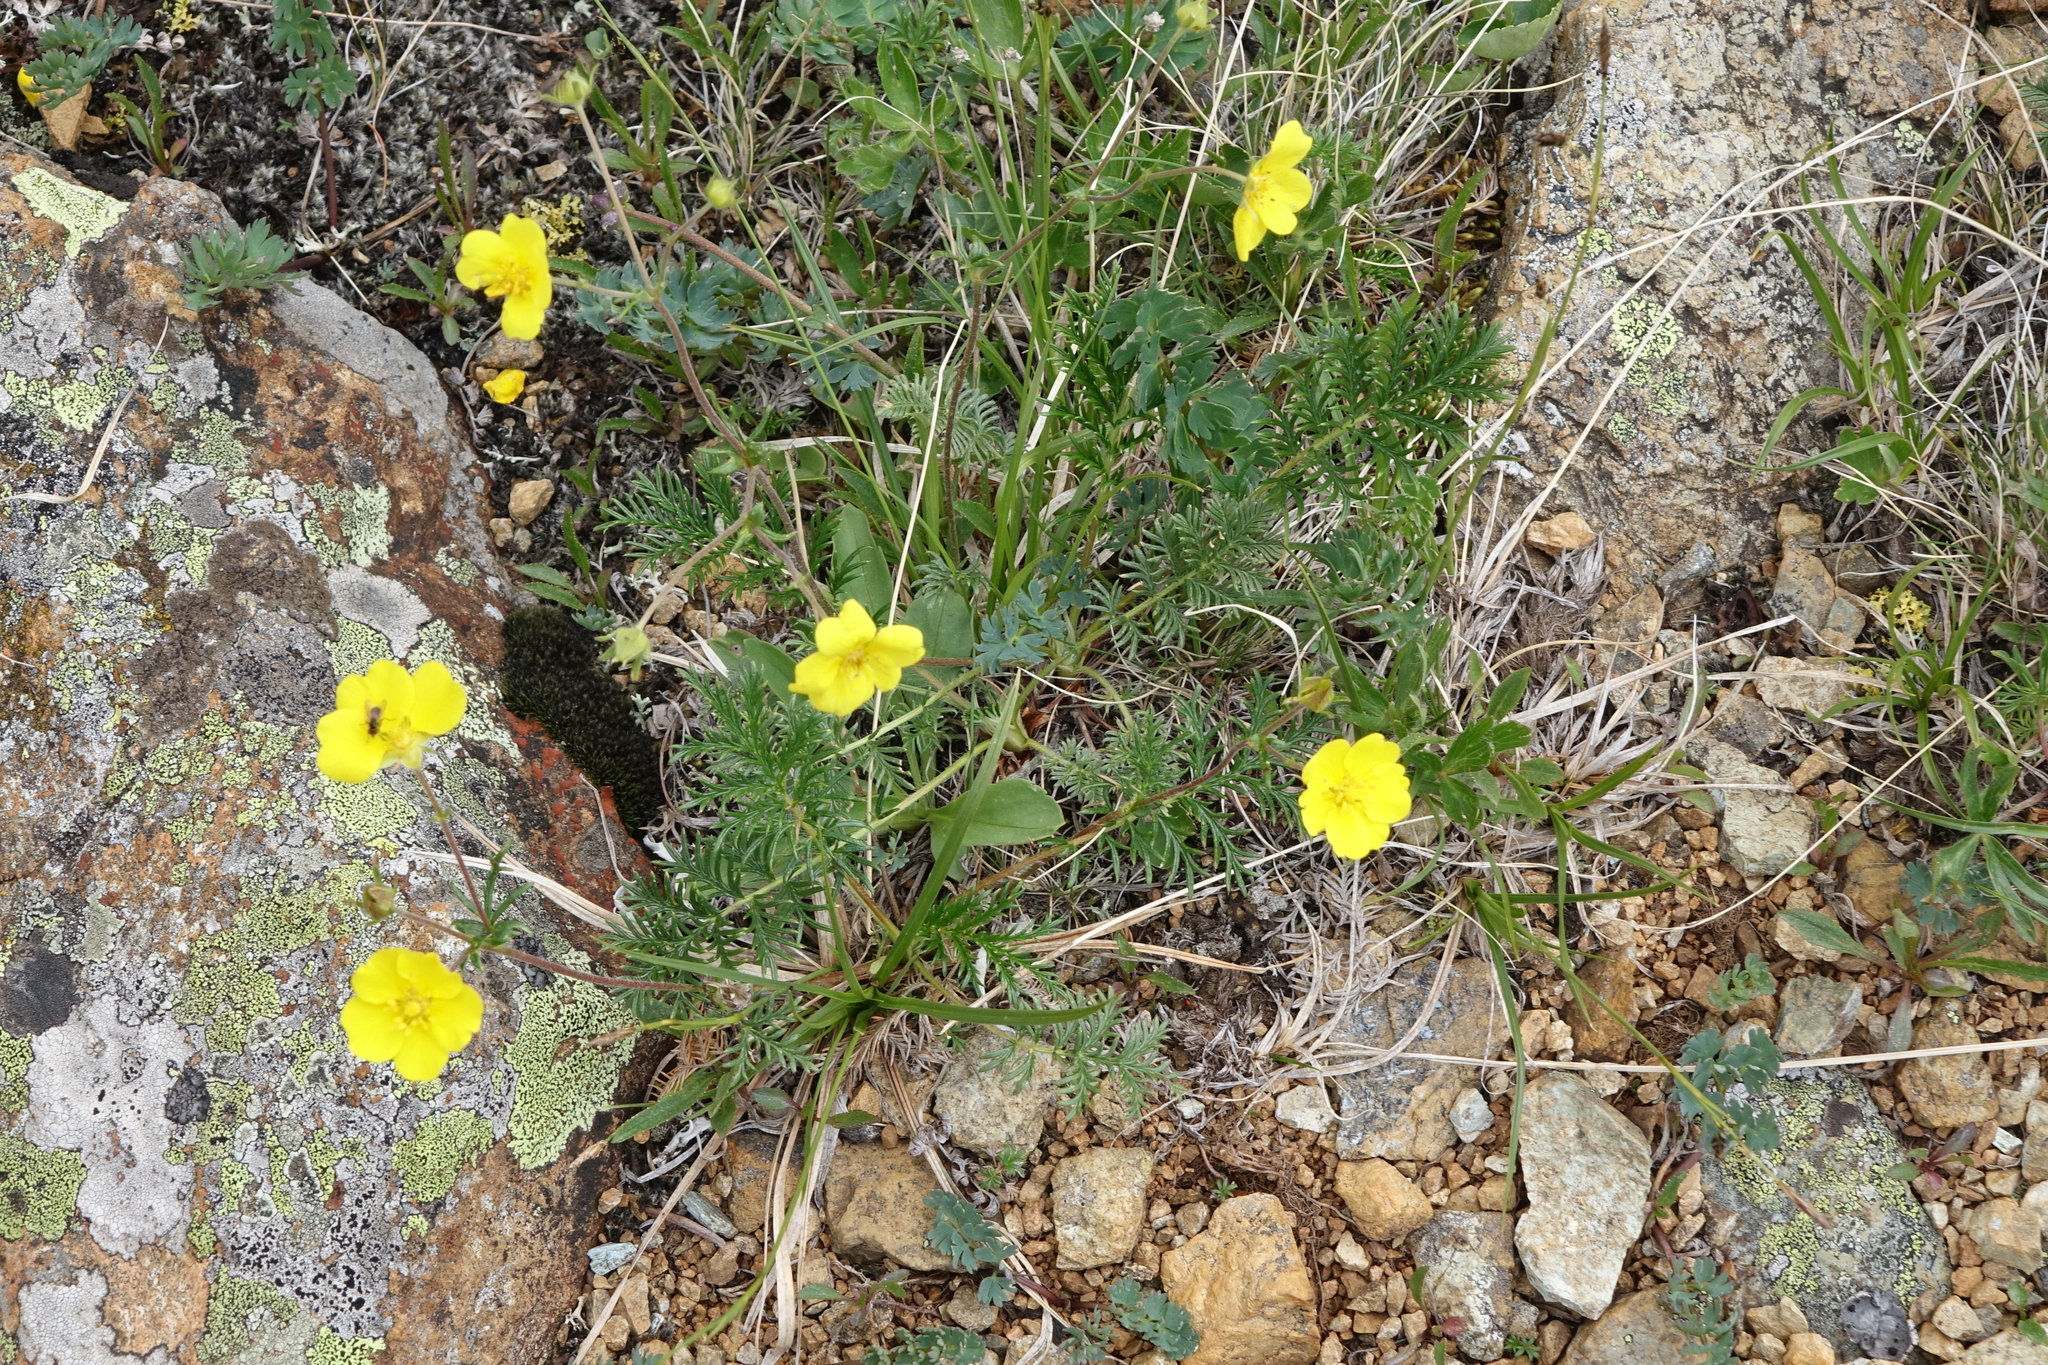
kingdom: Plantae
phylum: Tracheophyta
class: Magnoliopsida
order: Rosales
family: Rosaceae
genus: Potentilla
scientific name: Potentilla sericea
